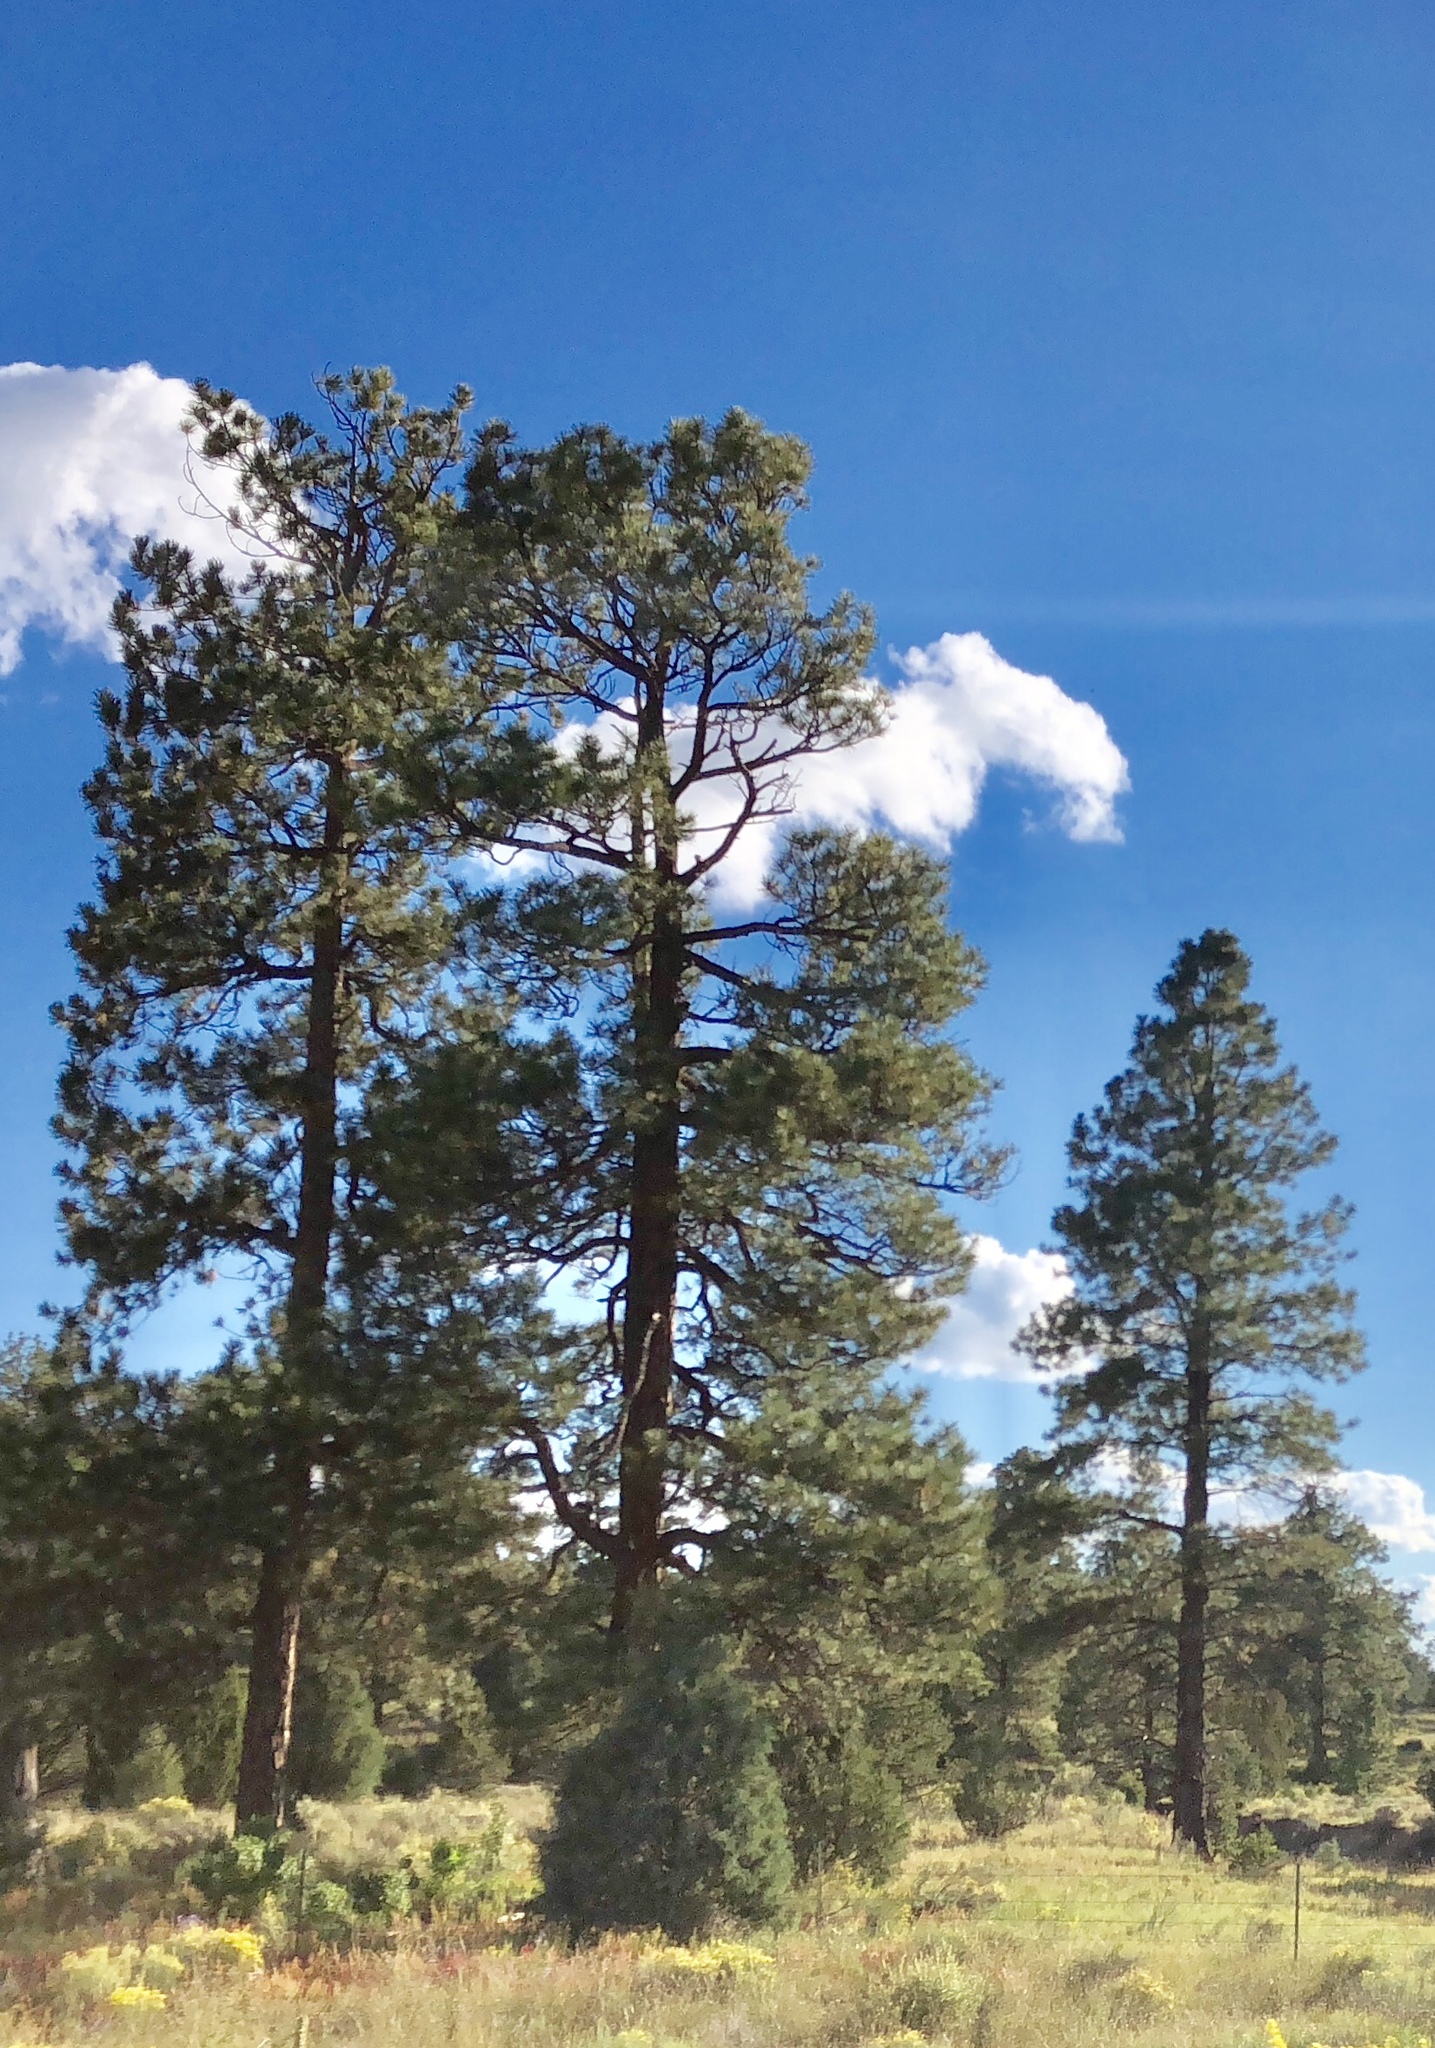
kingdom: Plantae
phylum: Tracheophyta
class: Pinopsida
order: Pinales
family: Pinaceae
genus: Pinus
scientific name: Pinus ponderosa
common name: Western yellow-pine
